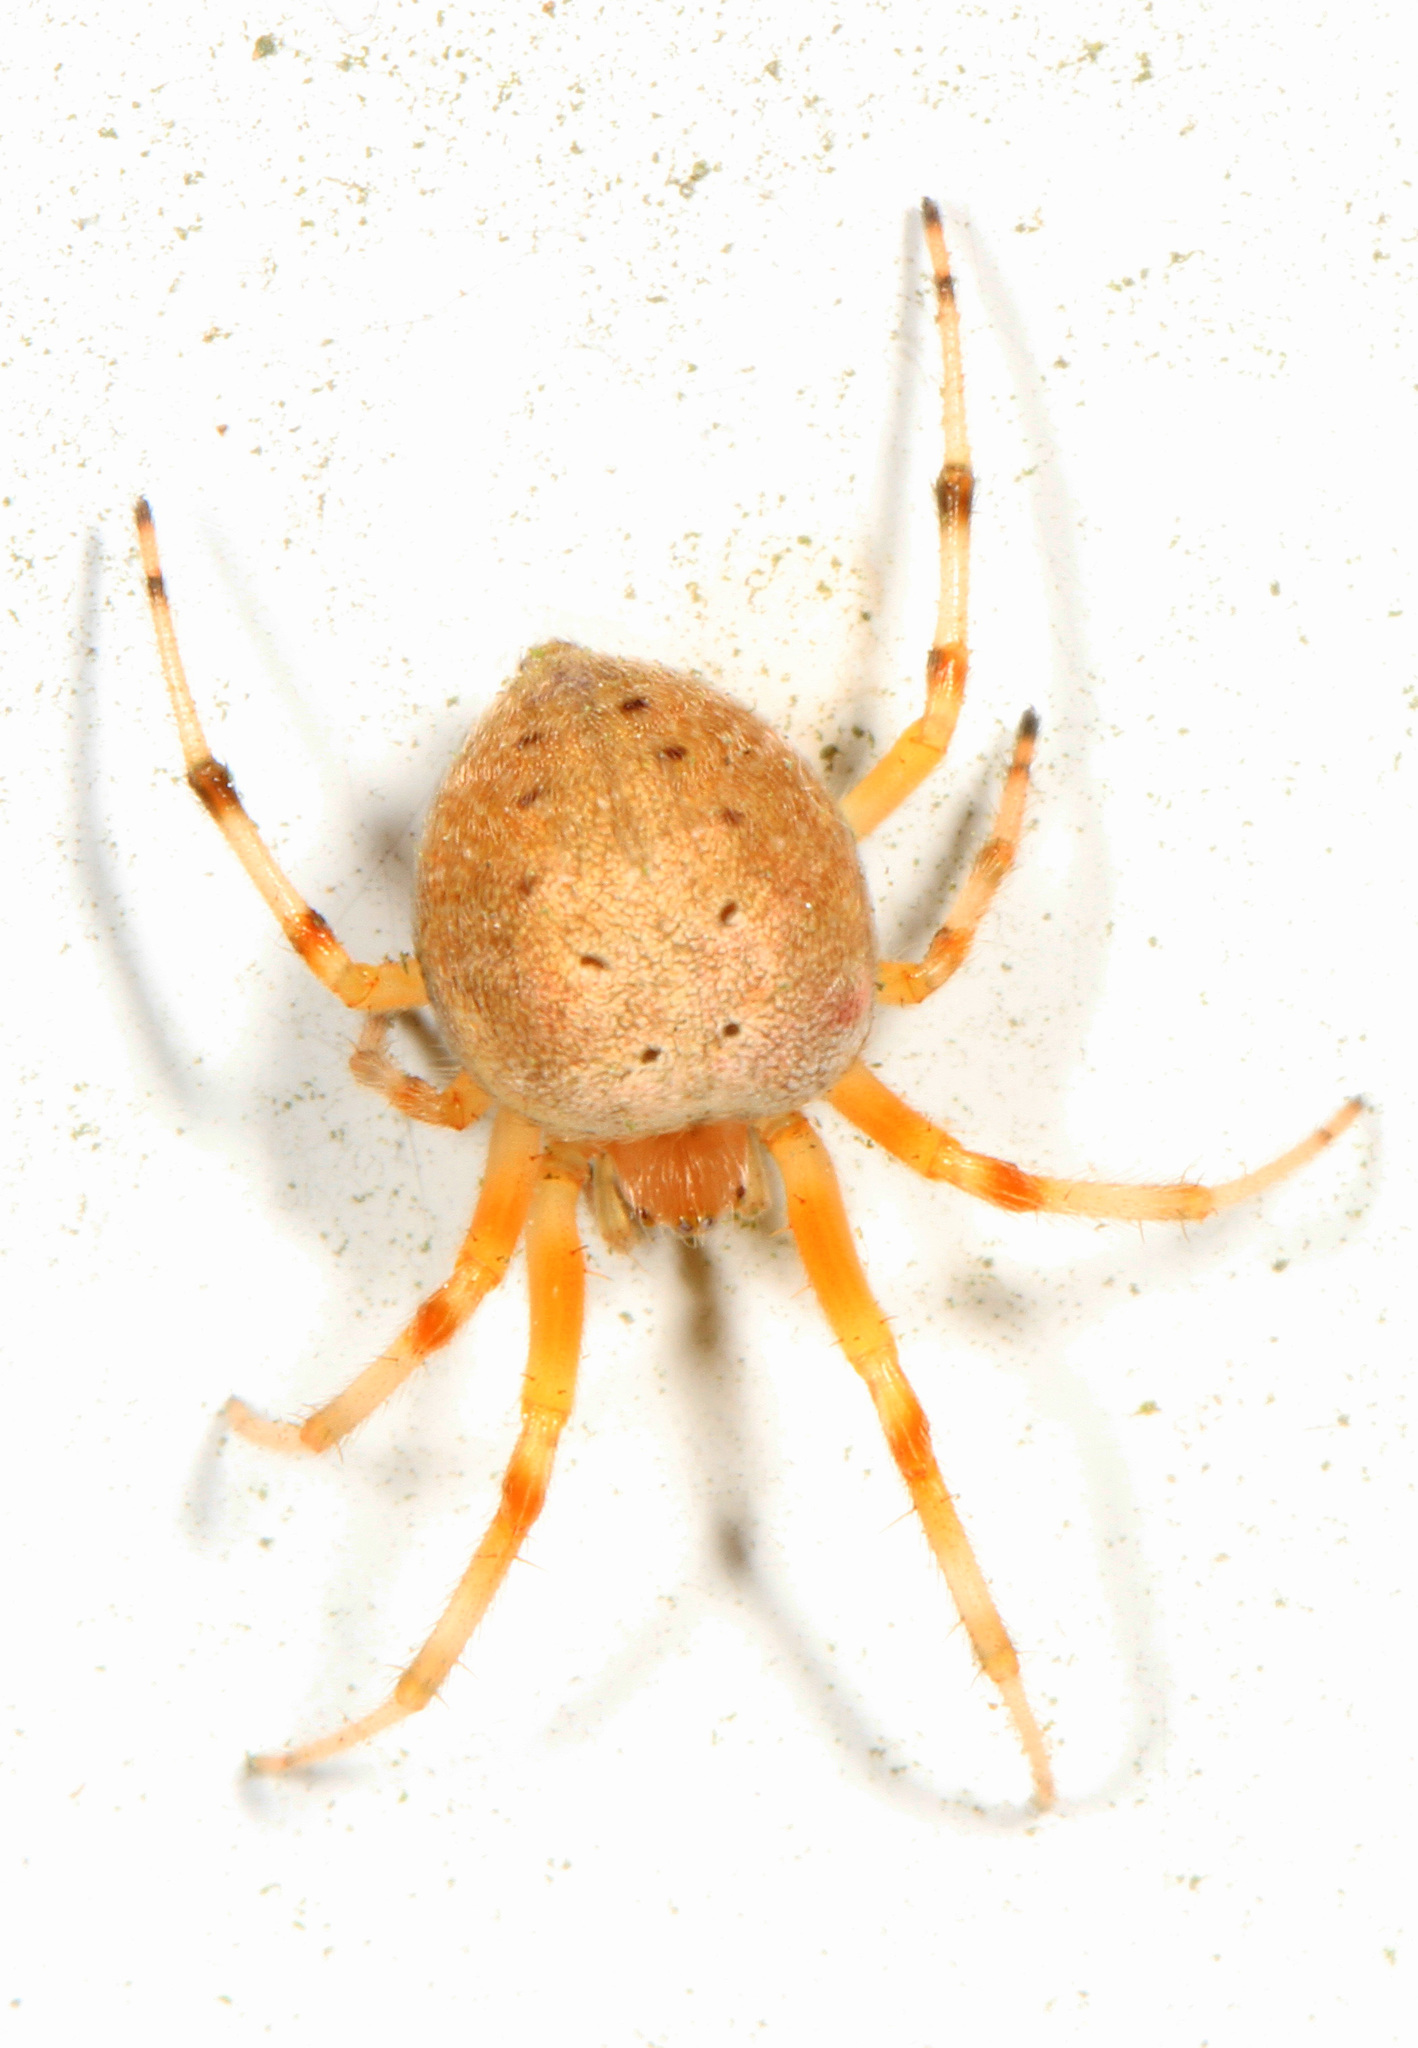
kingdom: Animalia
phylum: Arthropoda
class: Arachnida
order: Araneae
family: Araneidae
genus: Araneus
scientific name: Araneus thaddeus
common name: Lattice orbweaver
